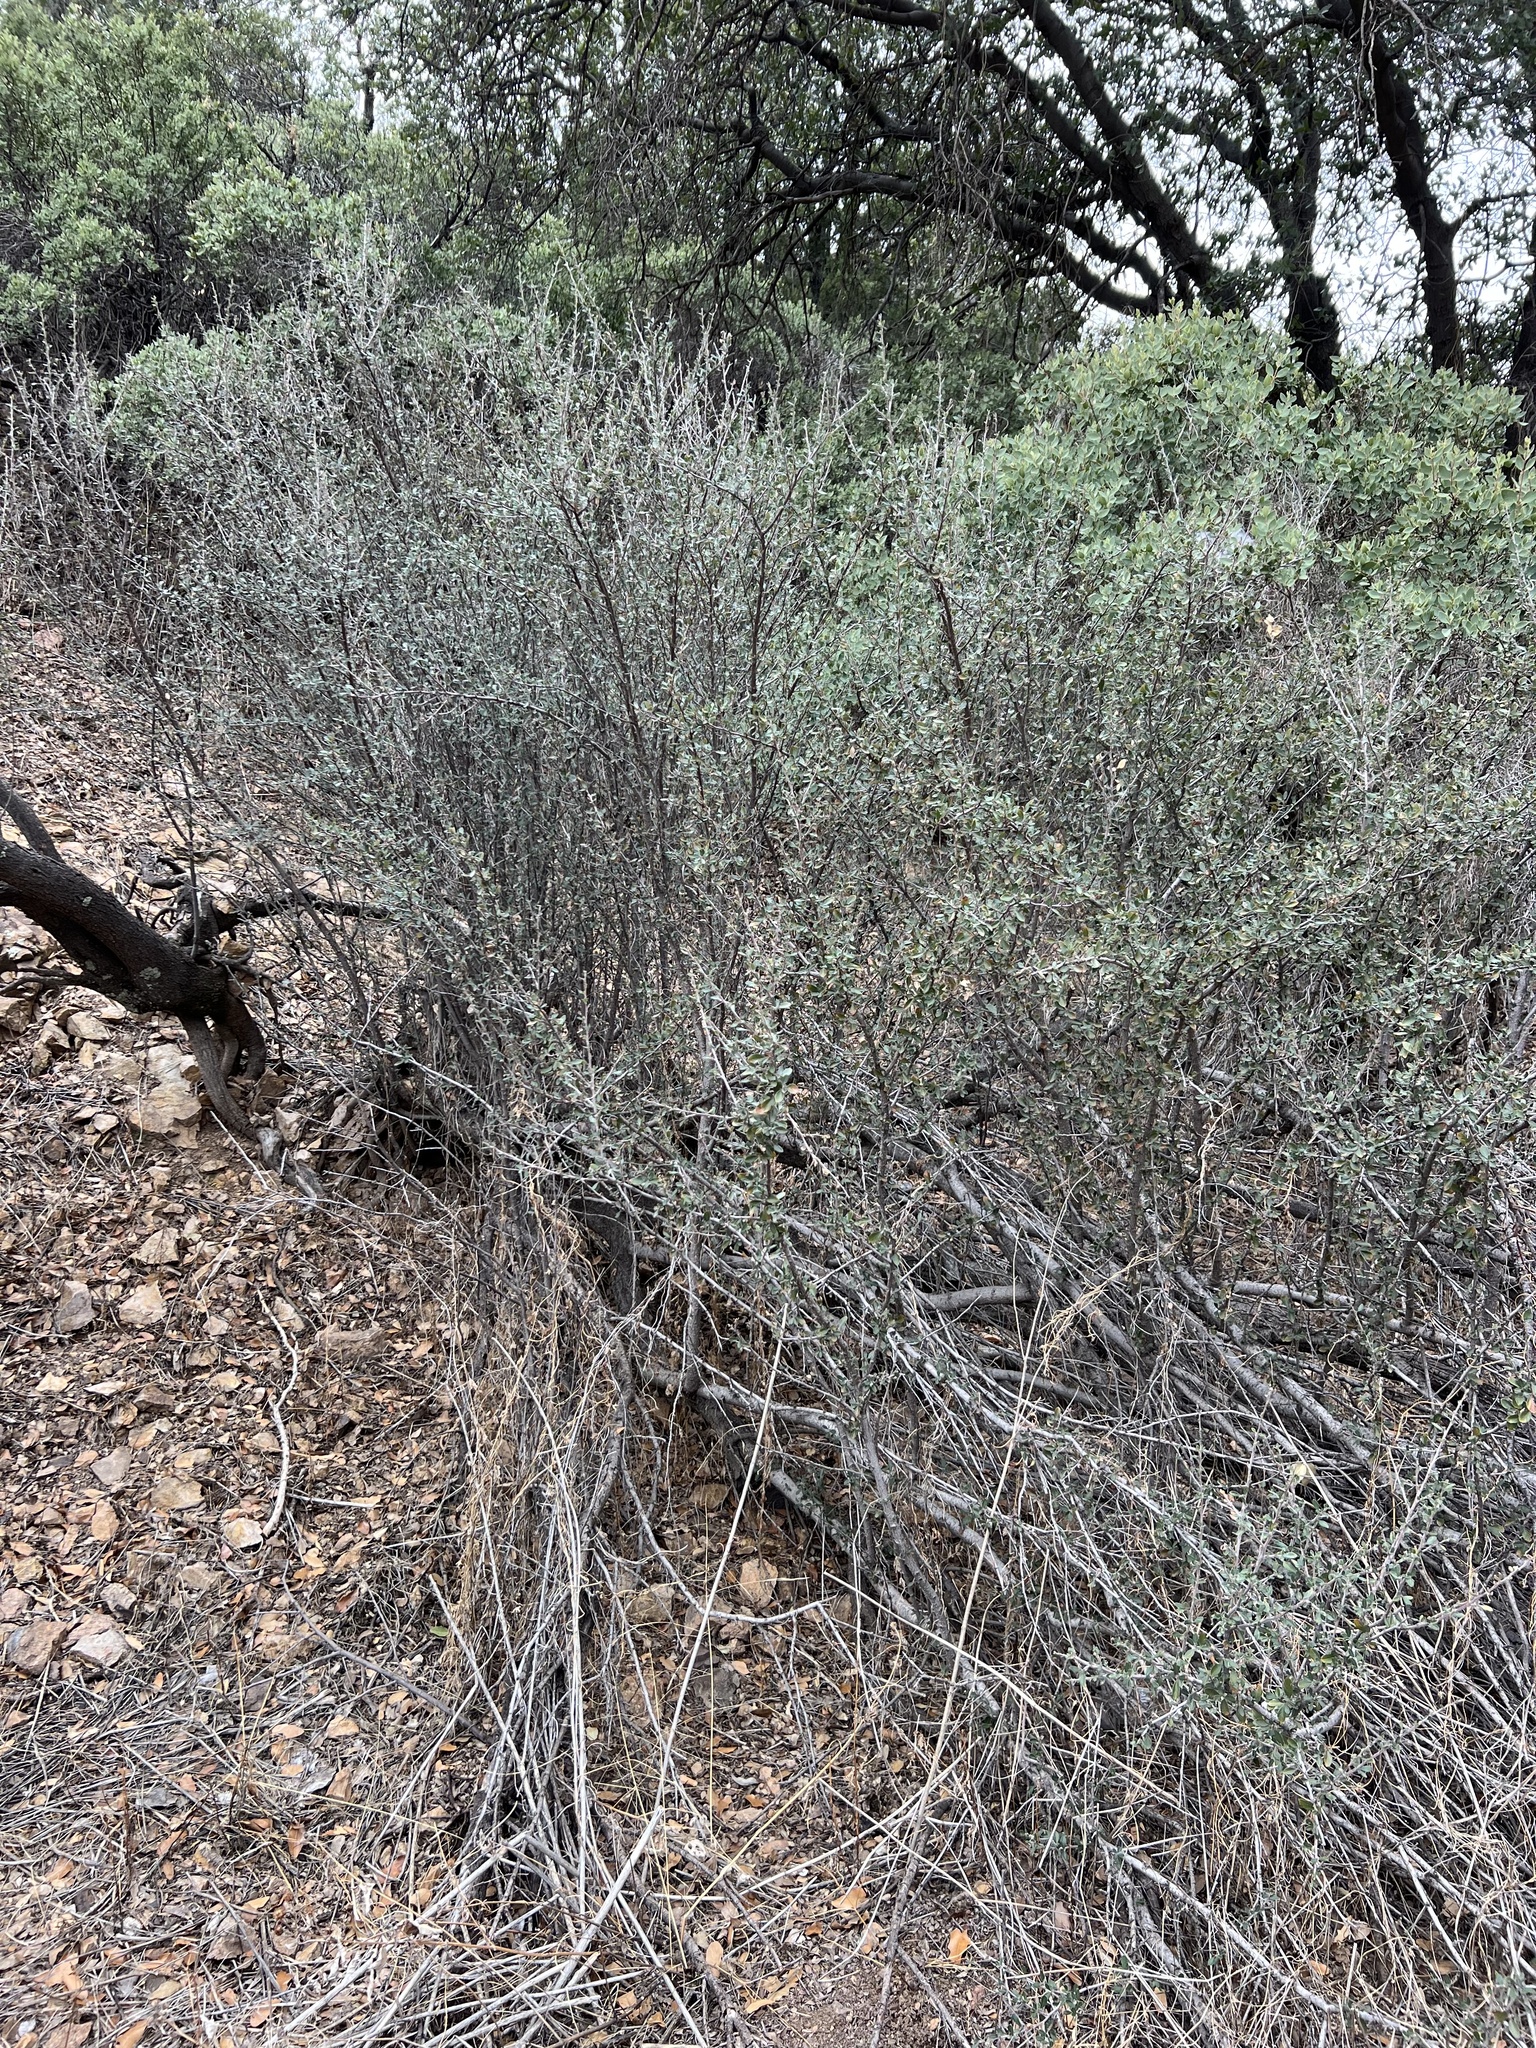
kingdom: Plantae
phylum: Tracheophyta
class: Magnoliopsida
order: Rosales
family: Rosaceae
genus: Cercocarpus
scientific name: Cercocarpus breviflorus
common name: Wright's mountain-mahogany
